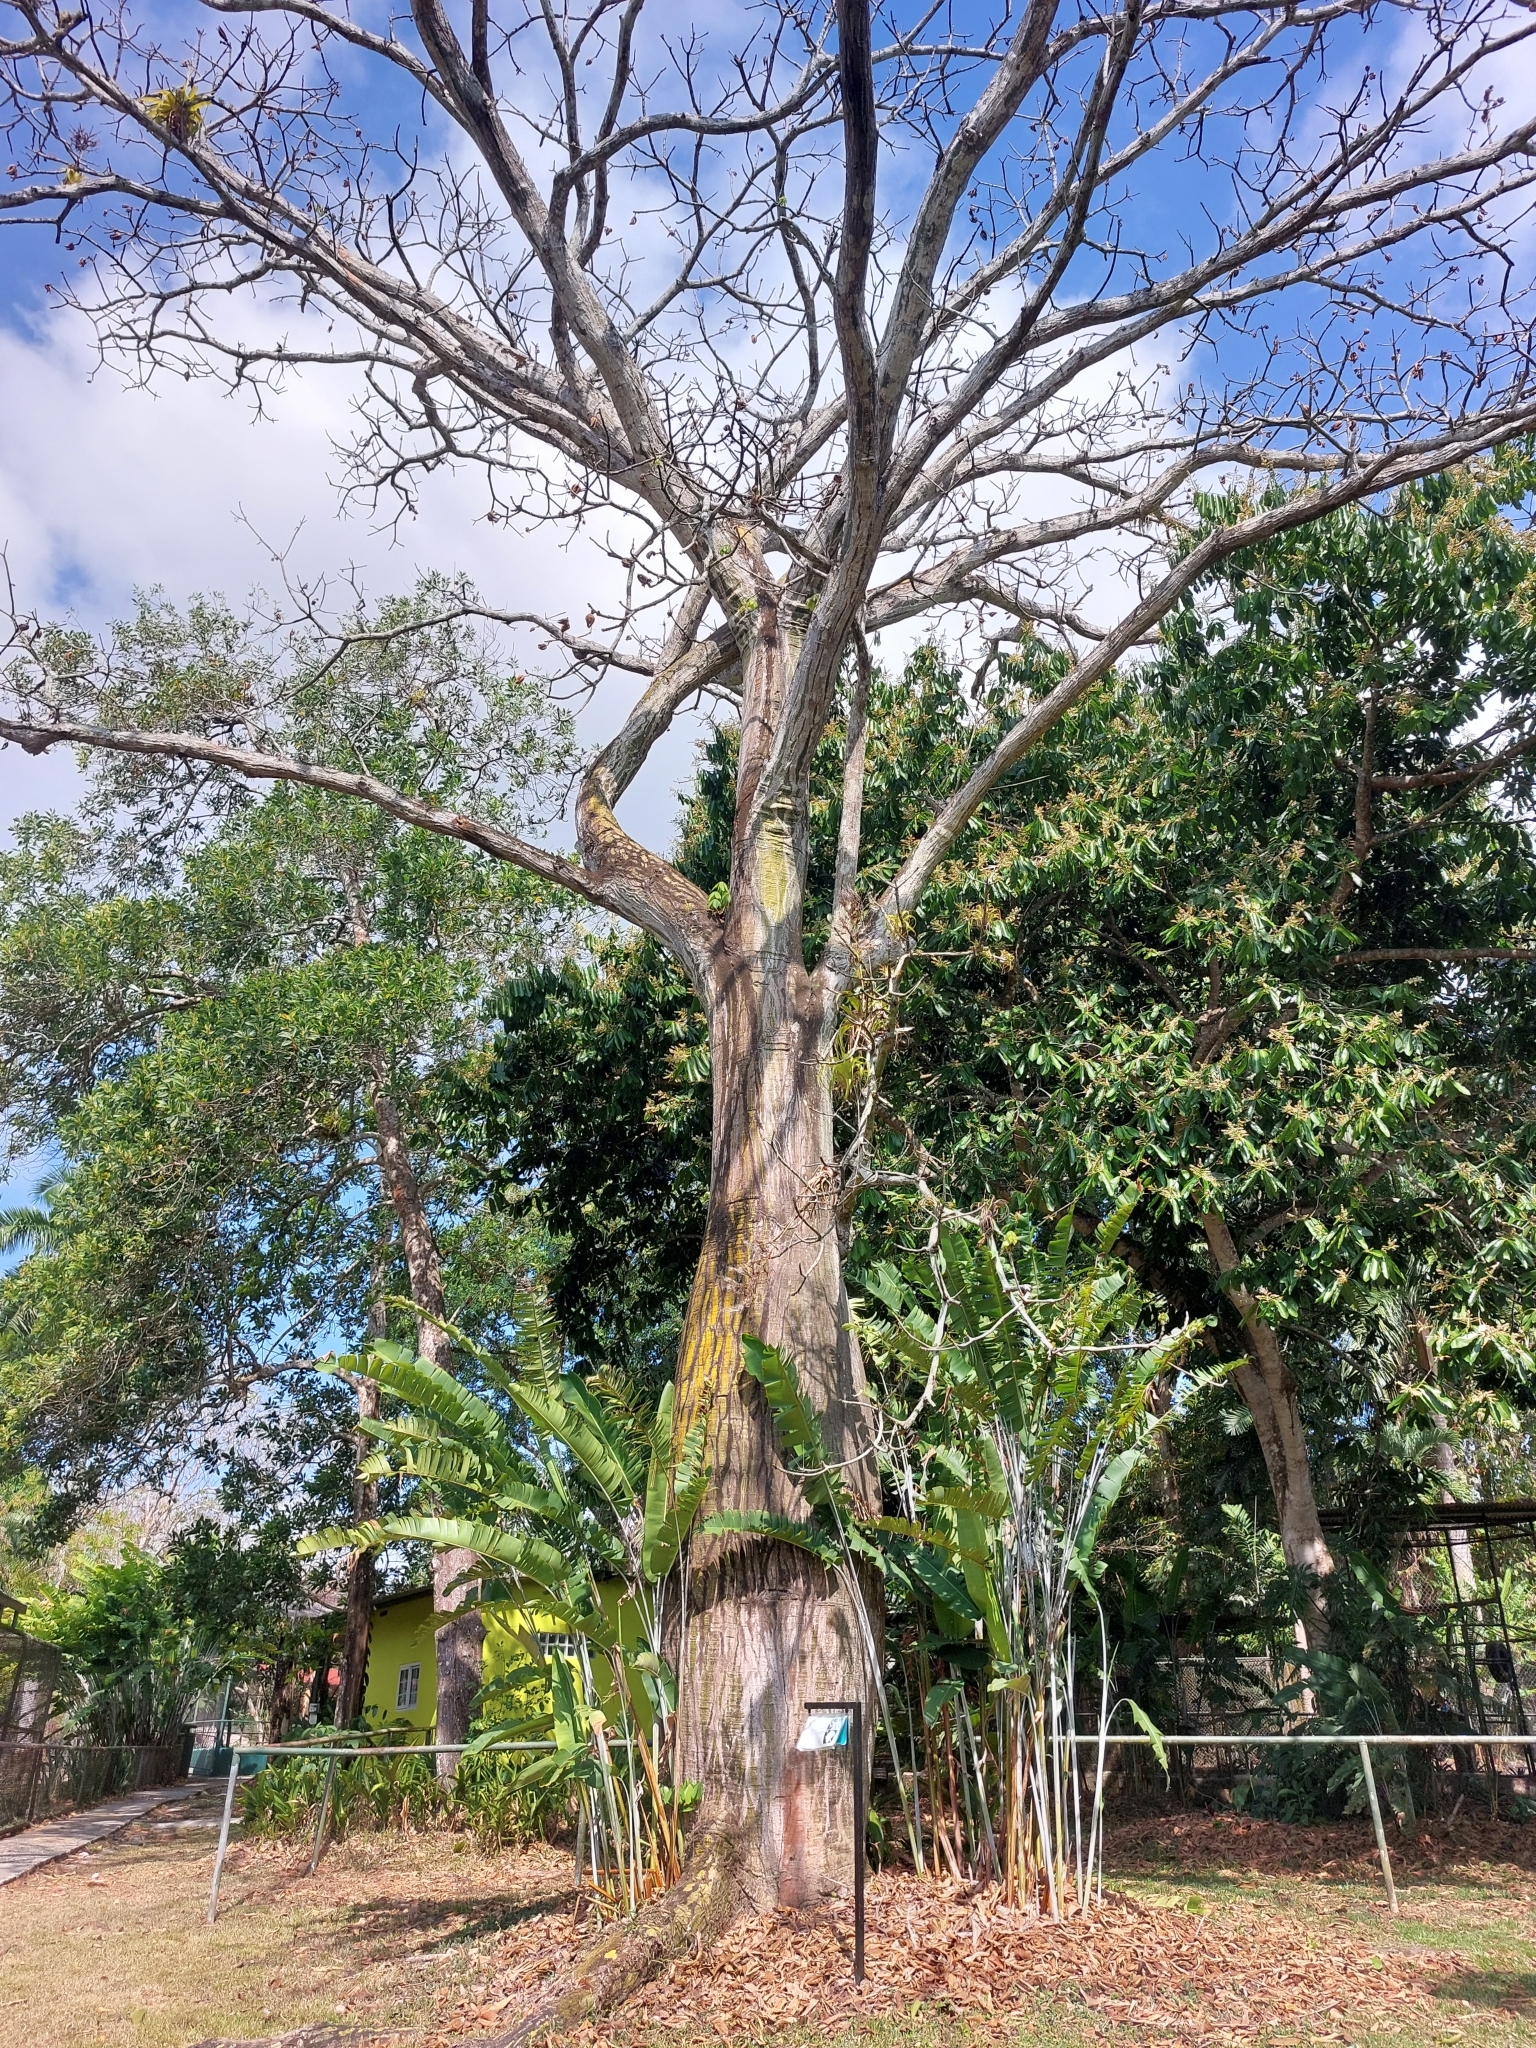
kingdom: Plantae
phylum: Tracheophyta
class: Magnoliopsida
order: Malvales
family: Malvaceae
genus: Pseudobombax
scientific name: Pseudobombax septenatum
